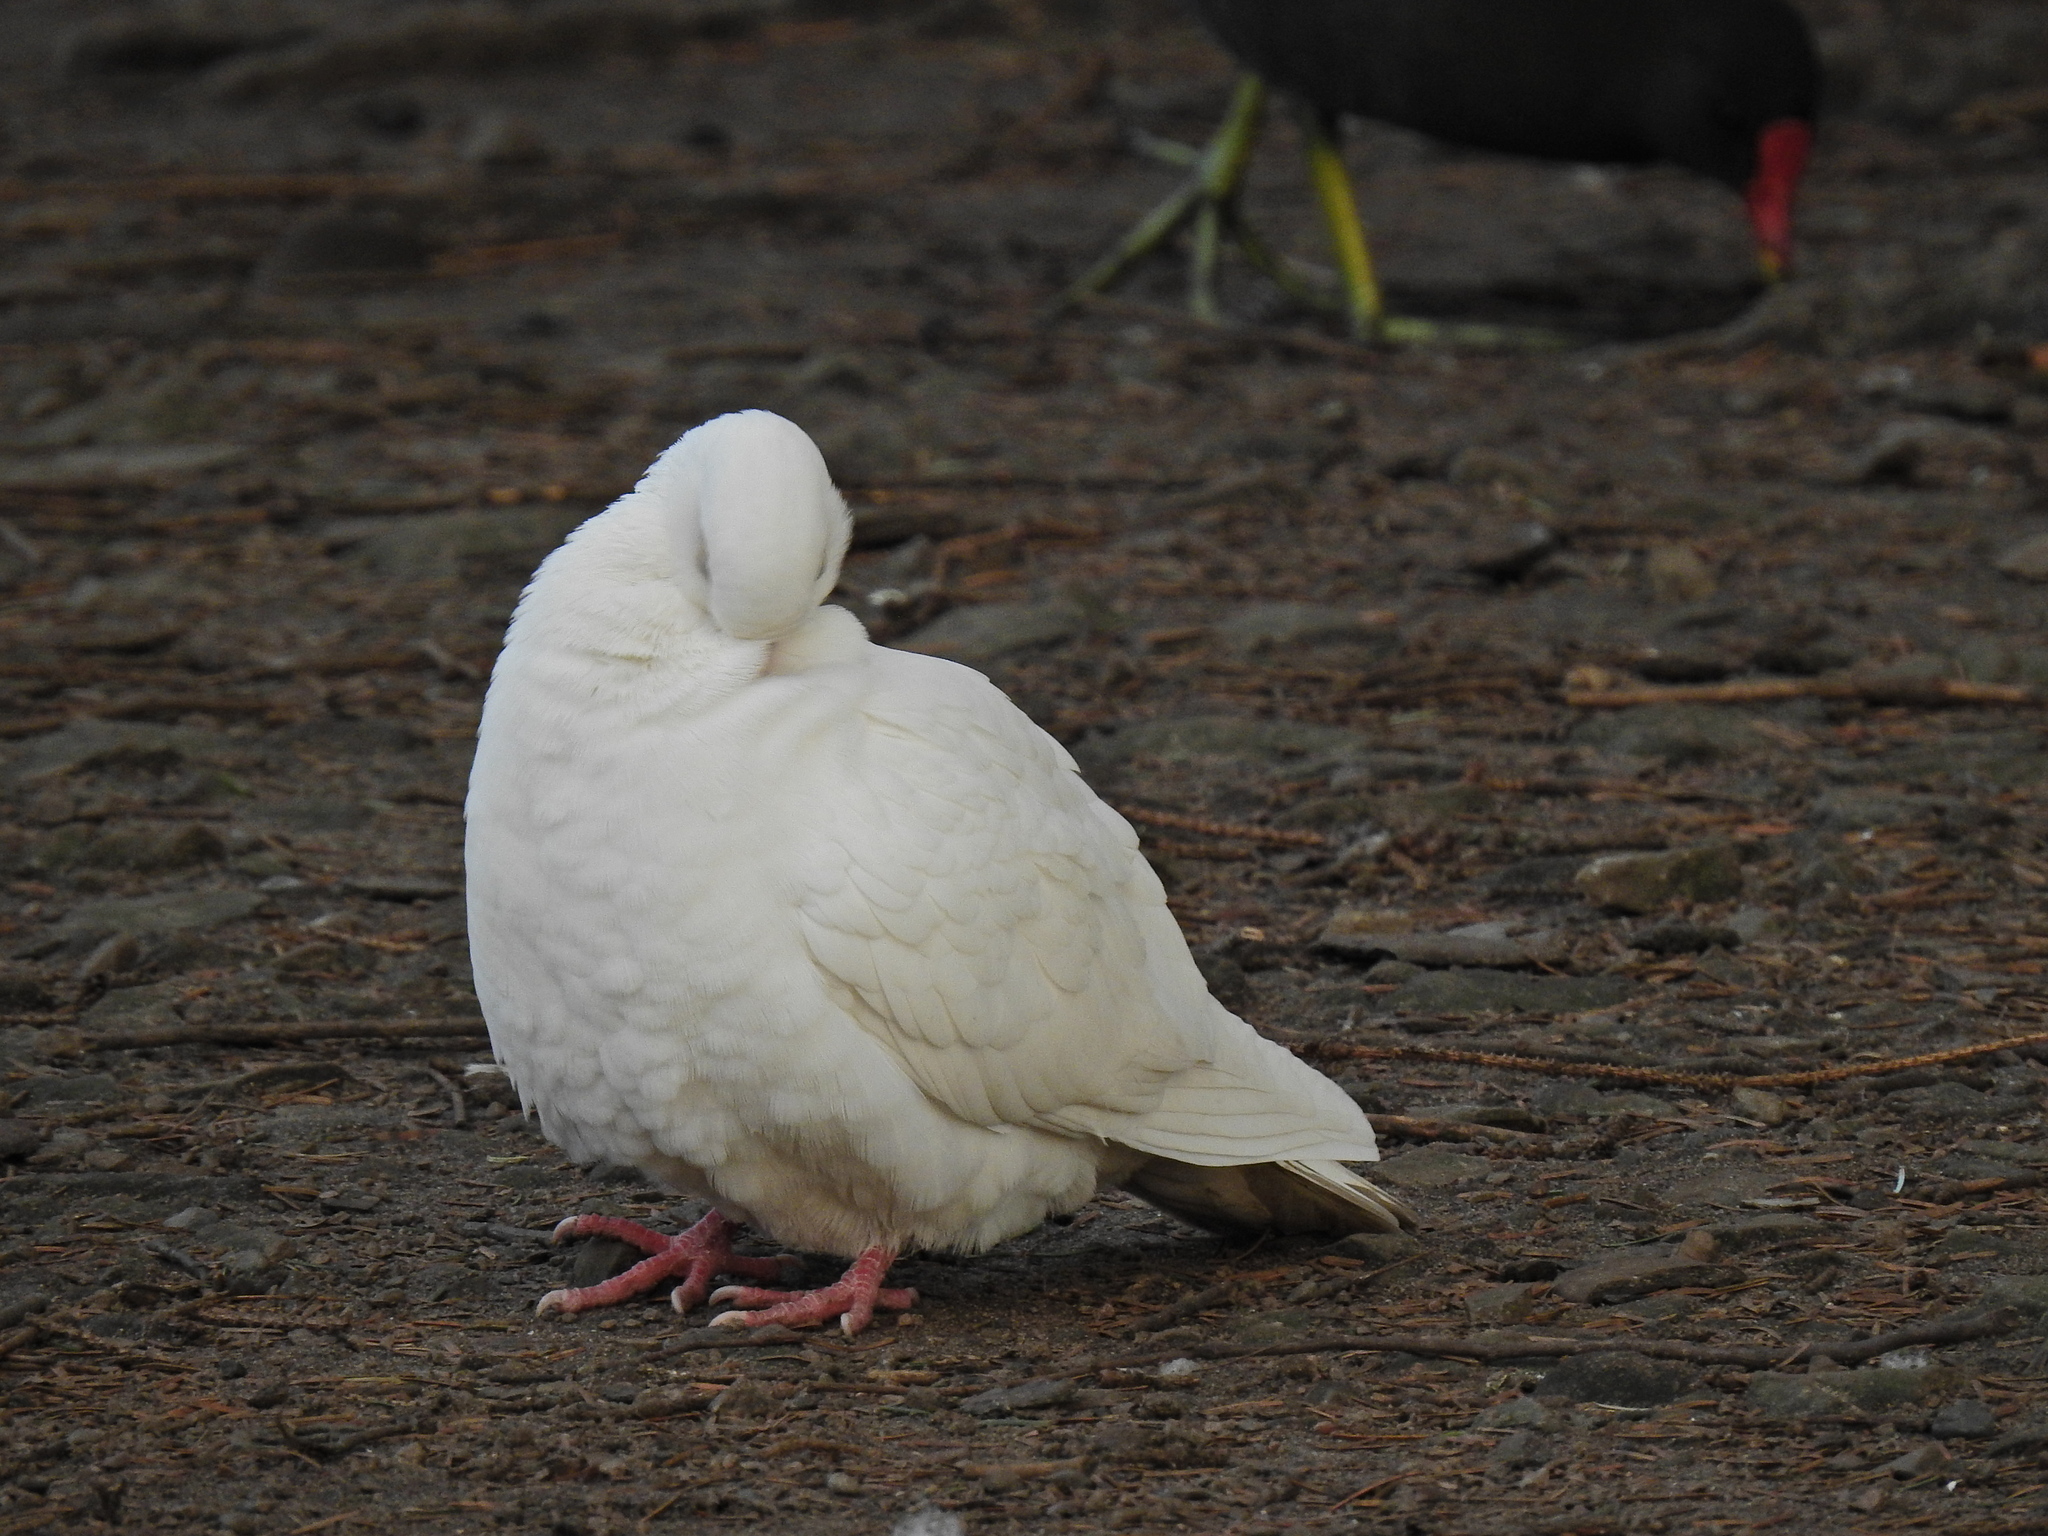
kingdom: Animalia
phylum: Chordata
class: Aves
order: Columbiformes
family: Columbidae
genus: Columba
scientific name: Columba livia
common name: Rock pigeon
